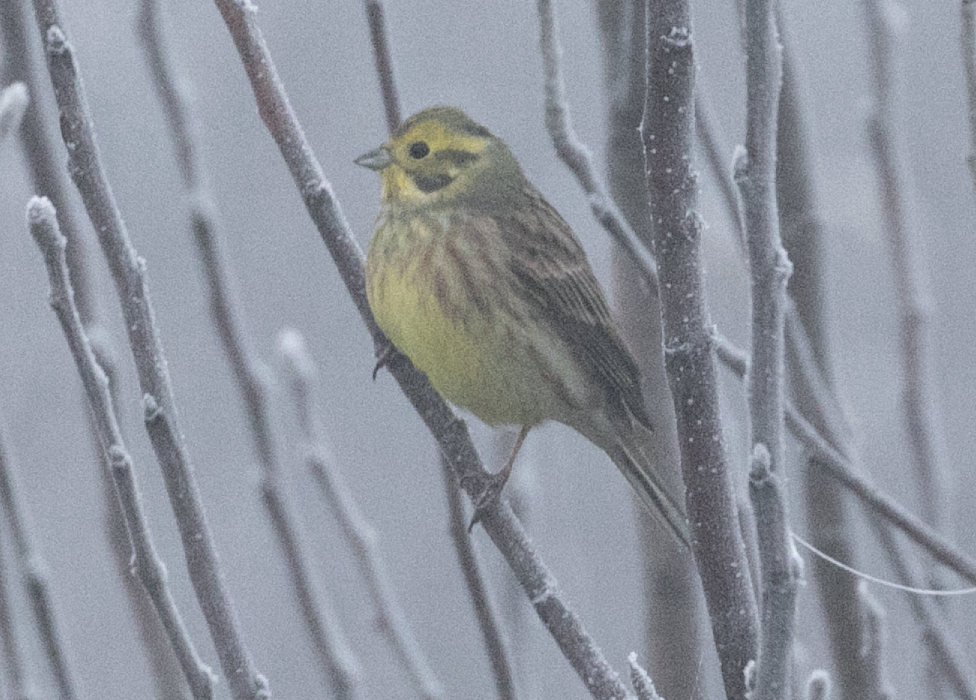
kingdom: Animalia
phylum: Chordata
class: Aves
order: Passeriformes
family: Emberizidae
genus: Emberiza
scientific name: Emberiza citrinella
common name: Yellowhammer
